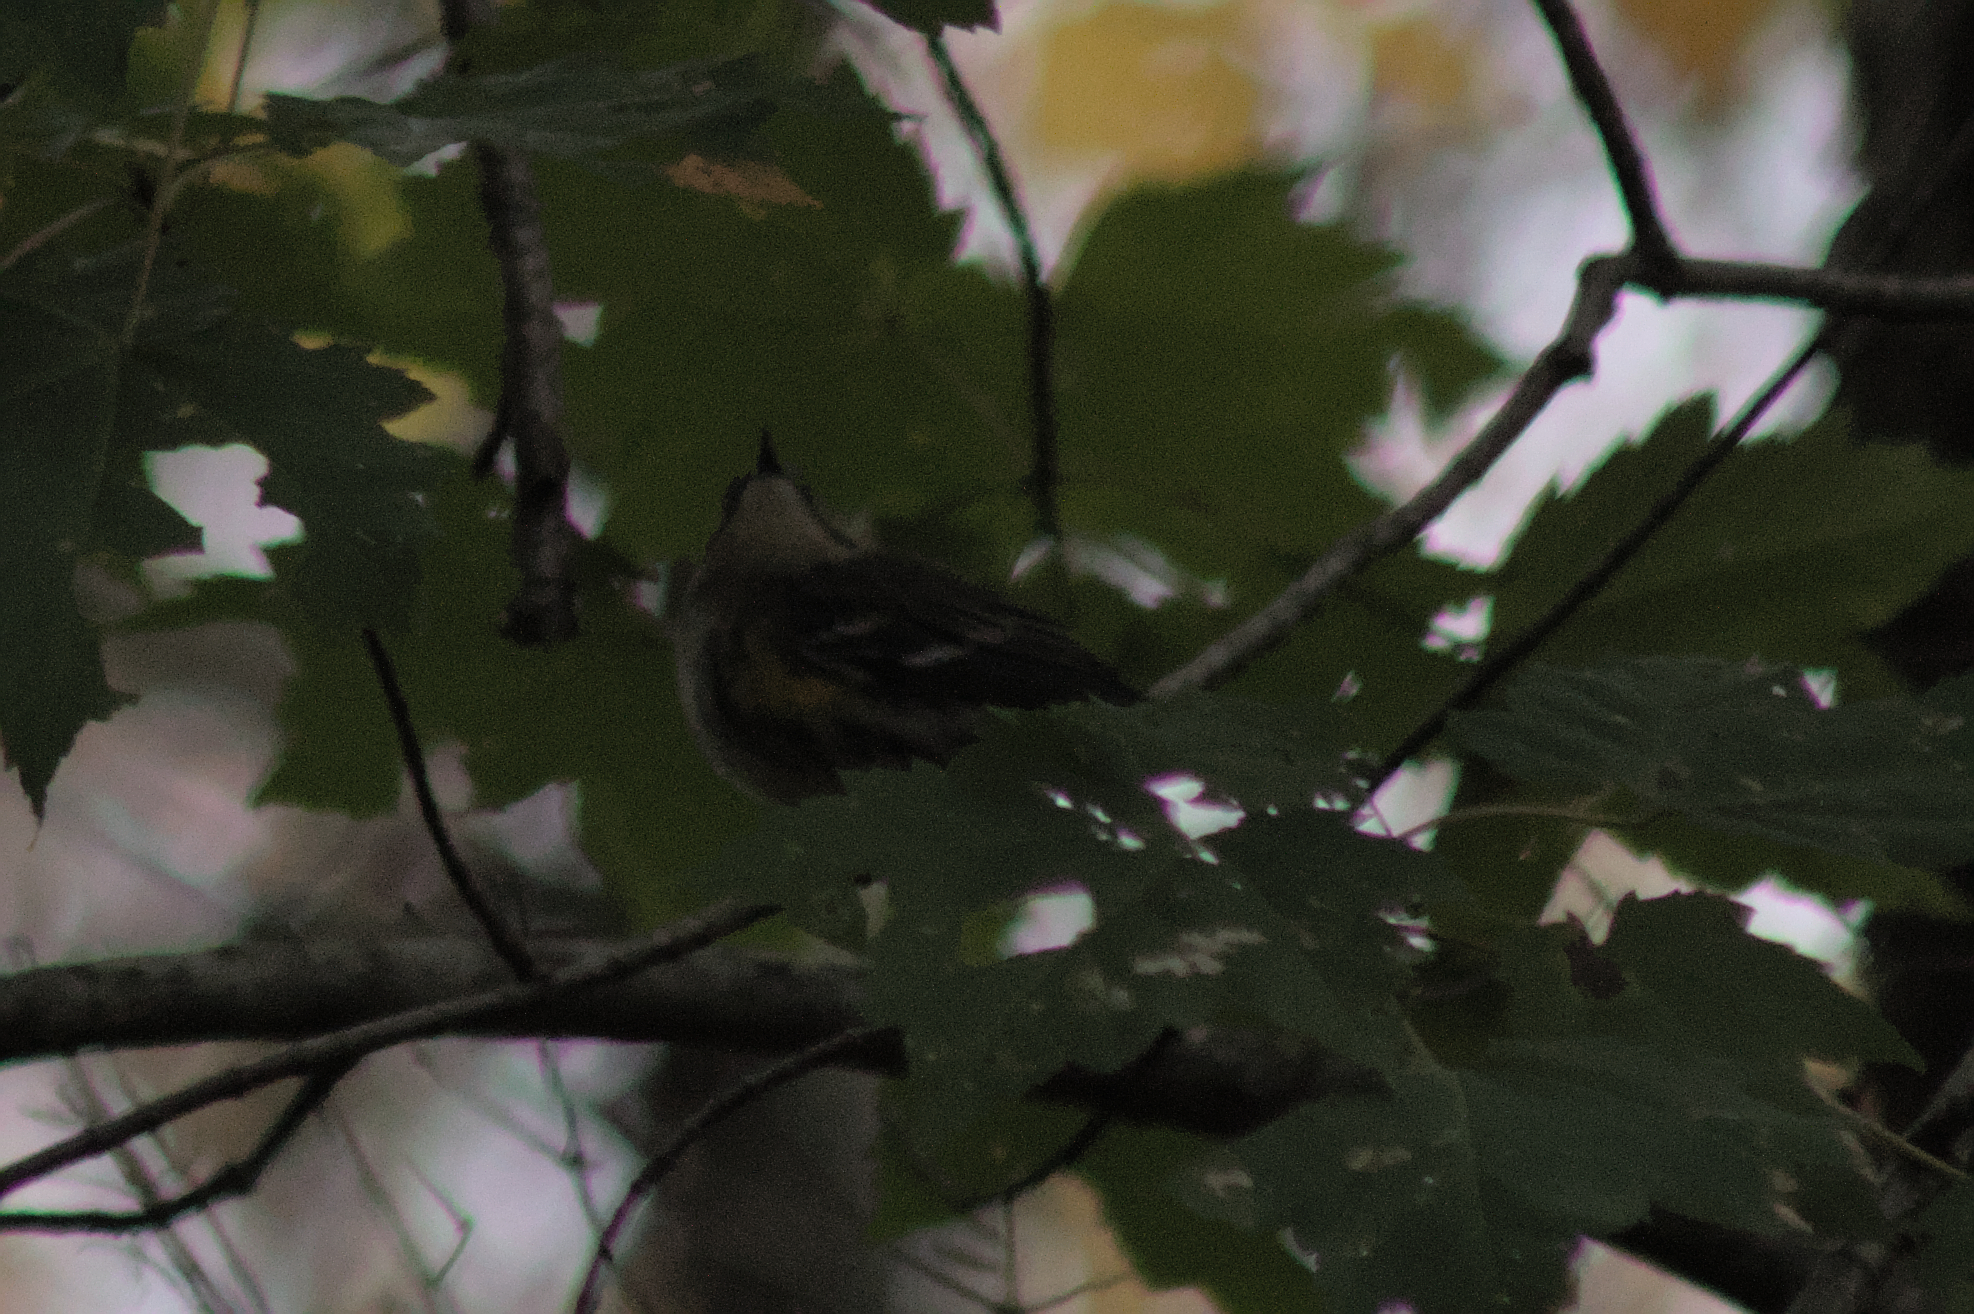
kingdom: Animalia
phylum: Chordata
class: Aves
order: Passeriformes
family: Parulidae
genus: Setophaga
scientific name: Setophaga coronata
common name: Myrtle warbler
